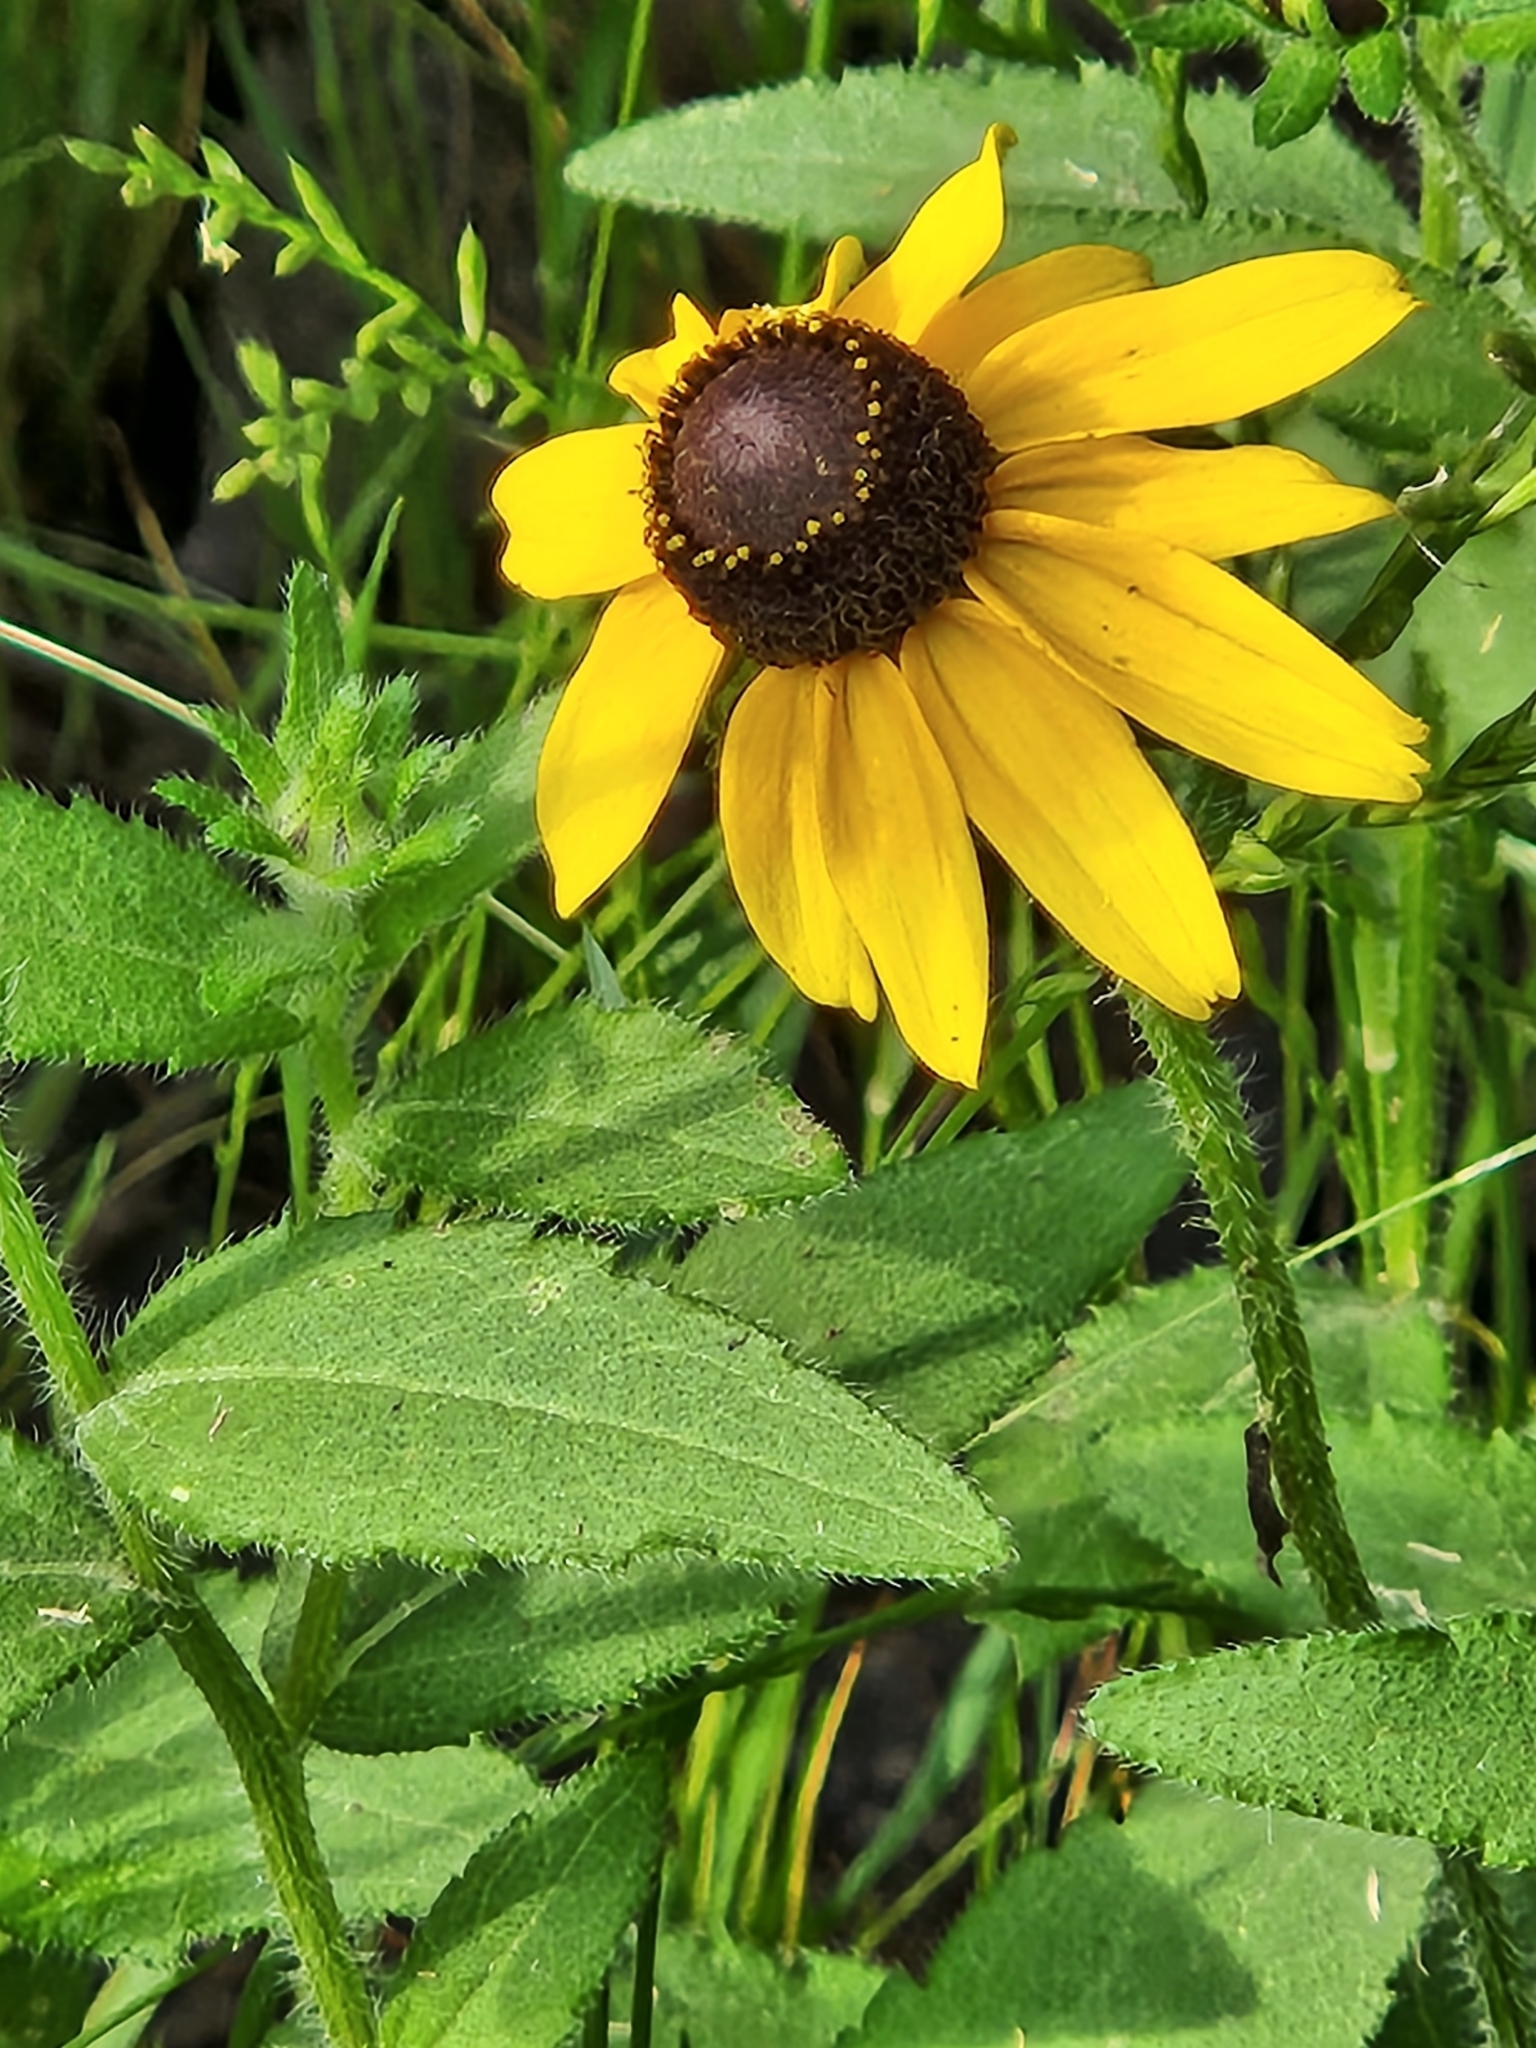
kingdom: Plantae
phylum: Tracheophyta
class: Magnoliopsida
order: Asterales
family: Asteraceae
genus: Rudbeckia
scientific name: Rudbeckia hirta
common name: Black-eyed-susan
